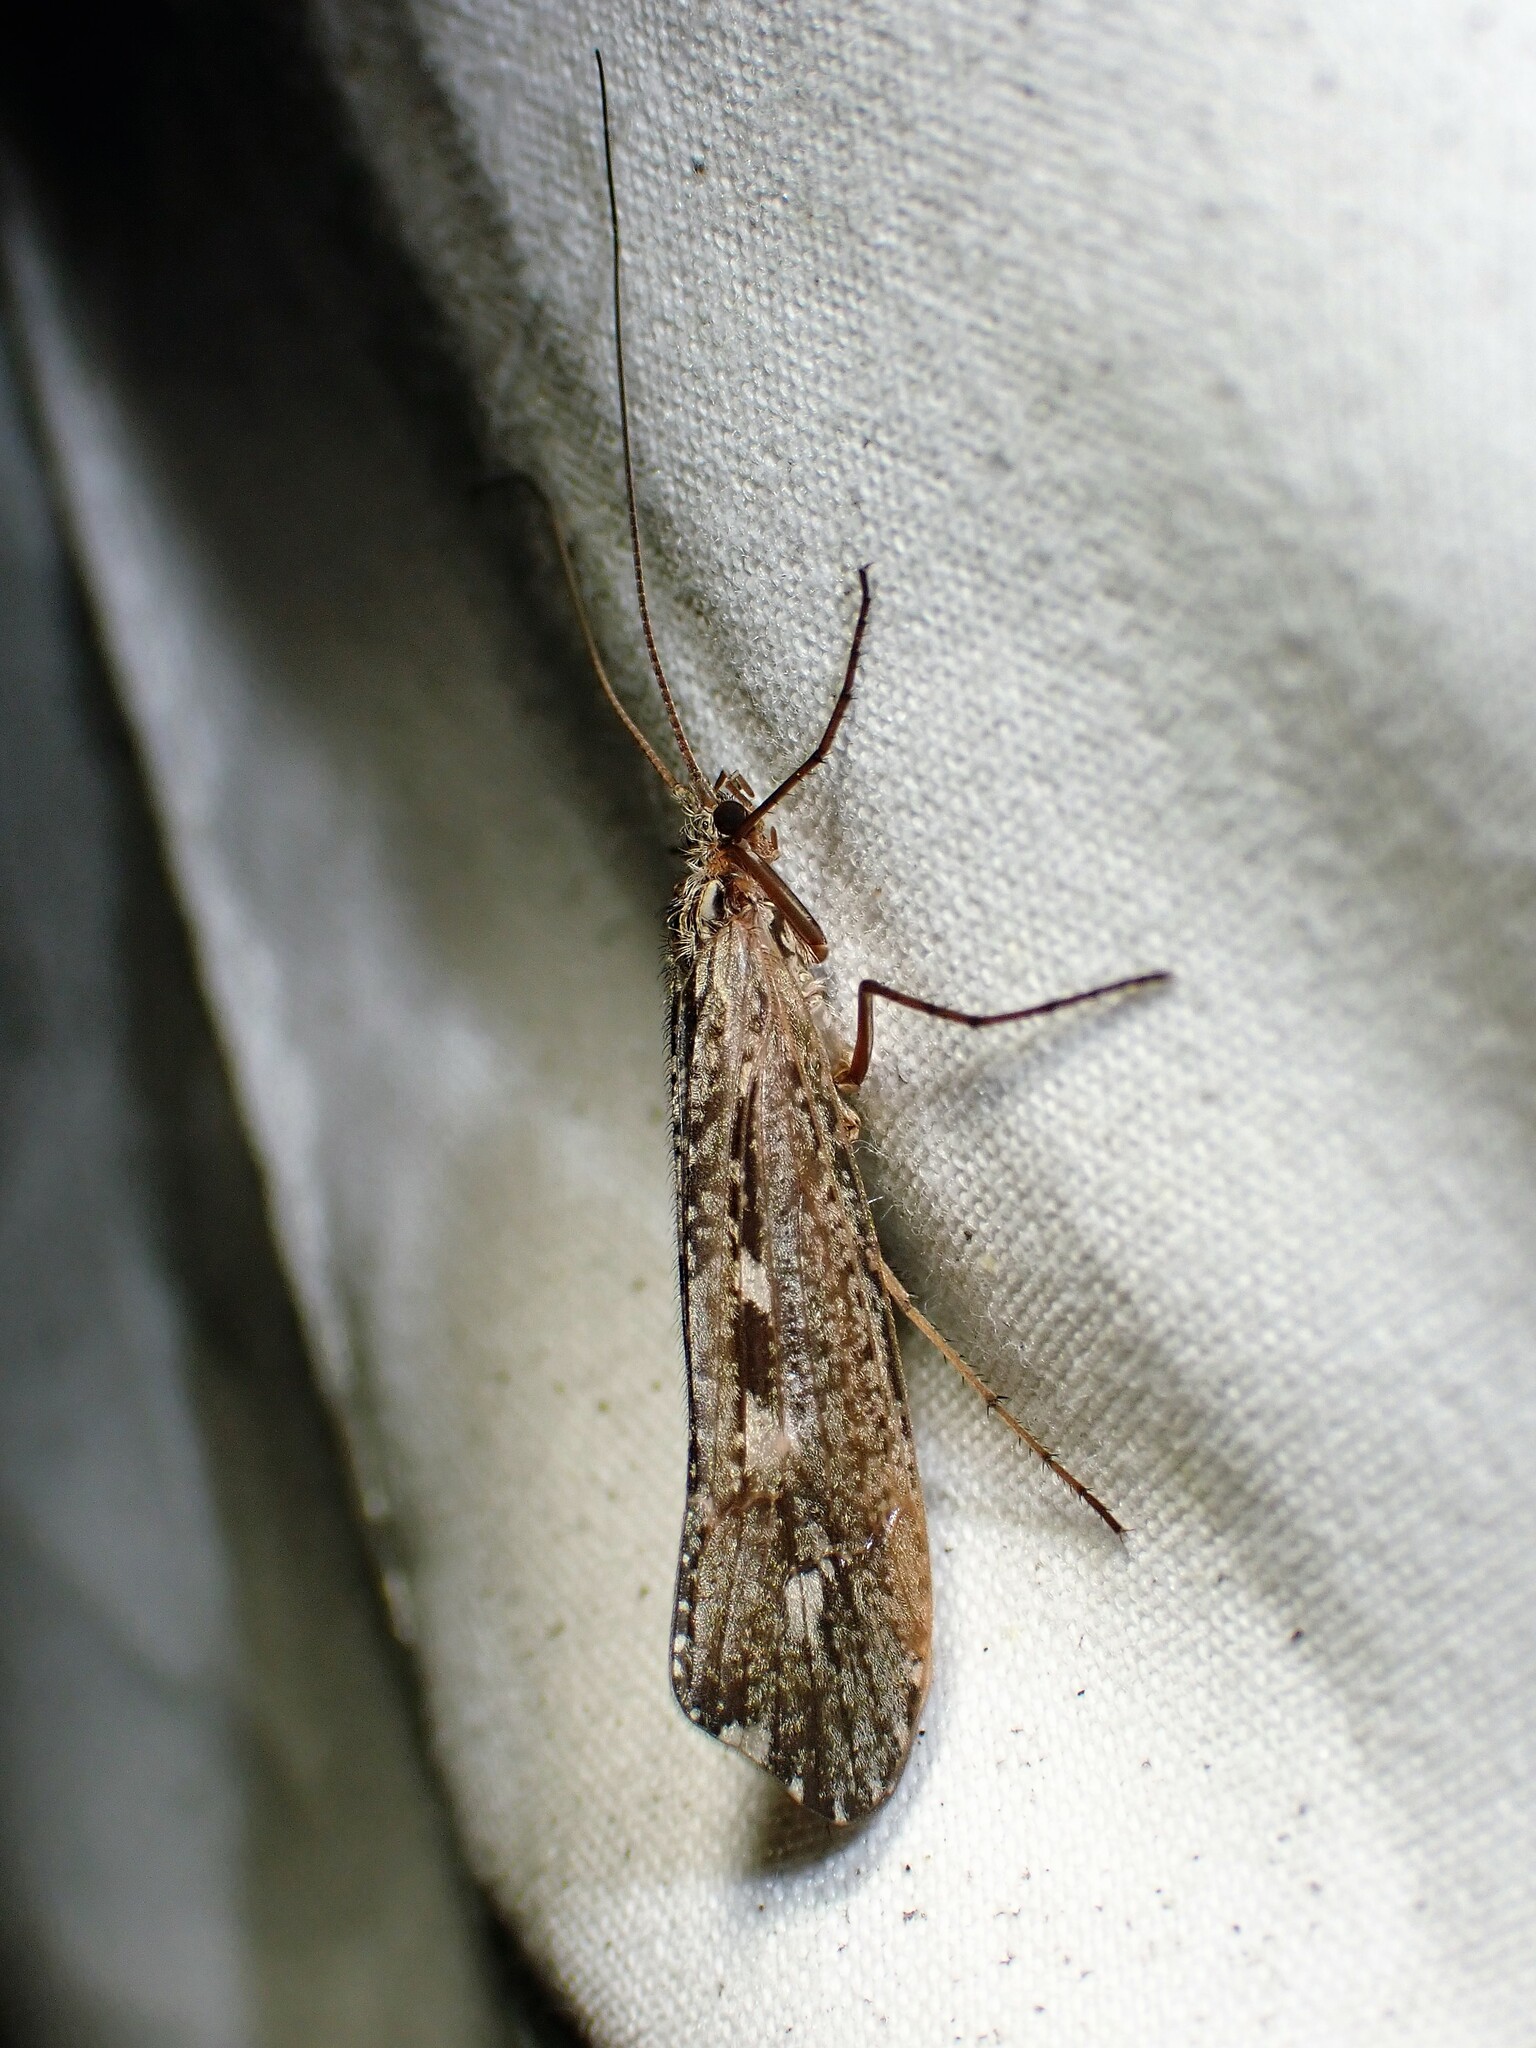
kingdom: Animalia
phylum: Arthropoda
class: Insecta
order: Trichoptera
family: Limnephilidae
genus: Glyphopsyche
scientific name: Glyphopsyche irrorata
